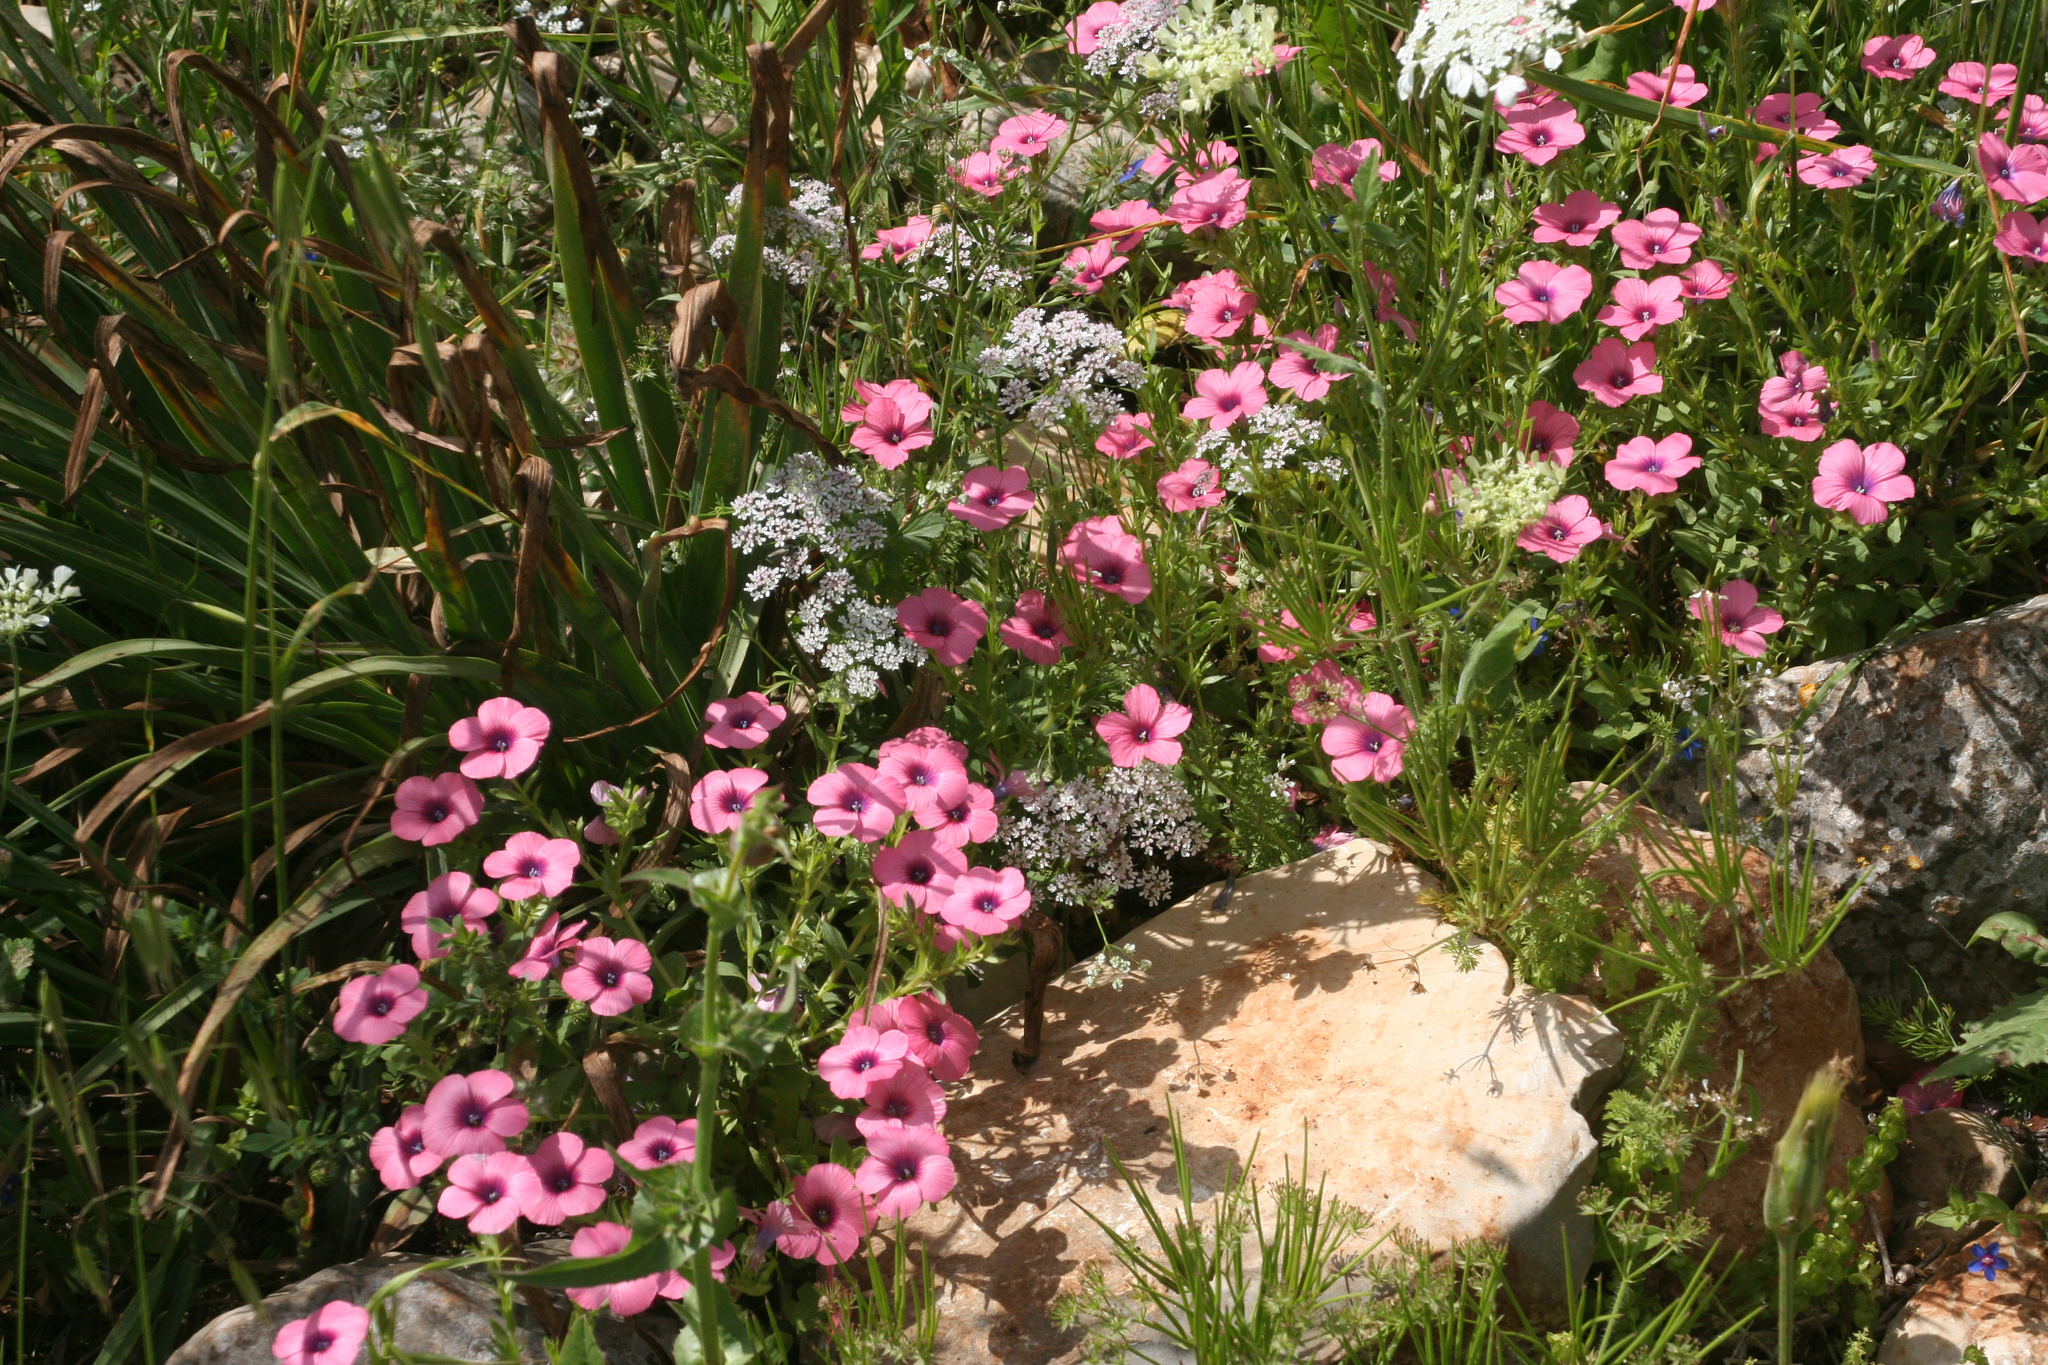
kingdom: Plantae
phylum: Tracheophyta
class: Magnoliopsida
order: Malpighiales
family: Linaceae
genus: Linum
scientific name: Linum pubescens
